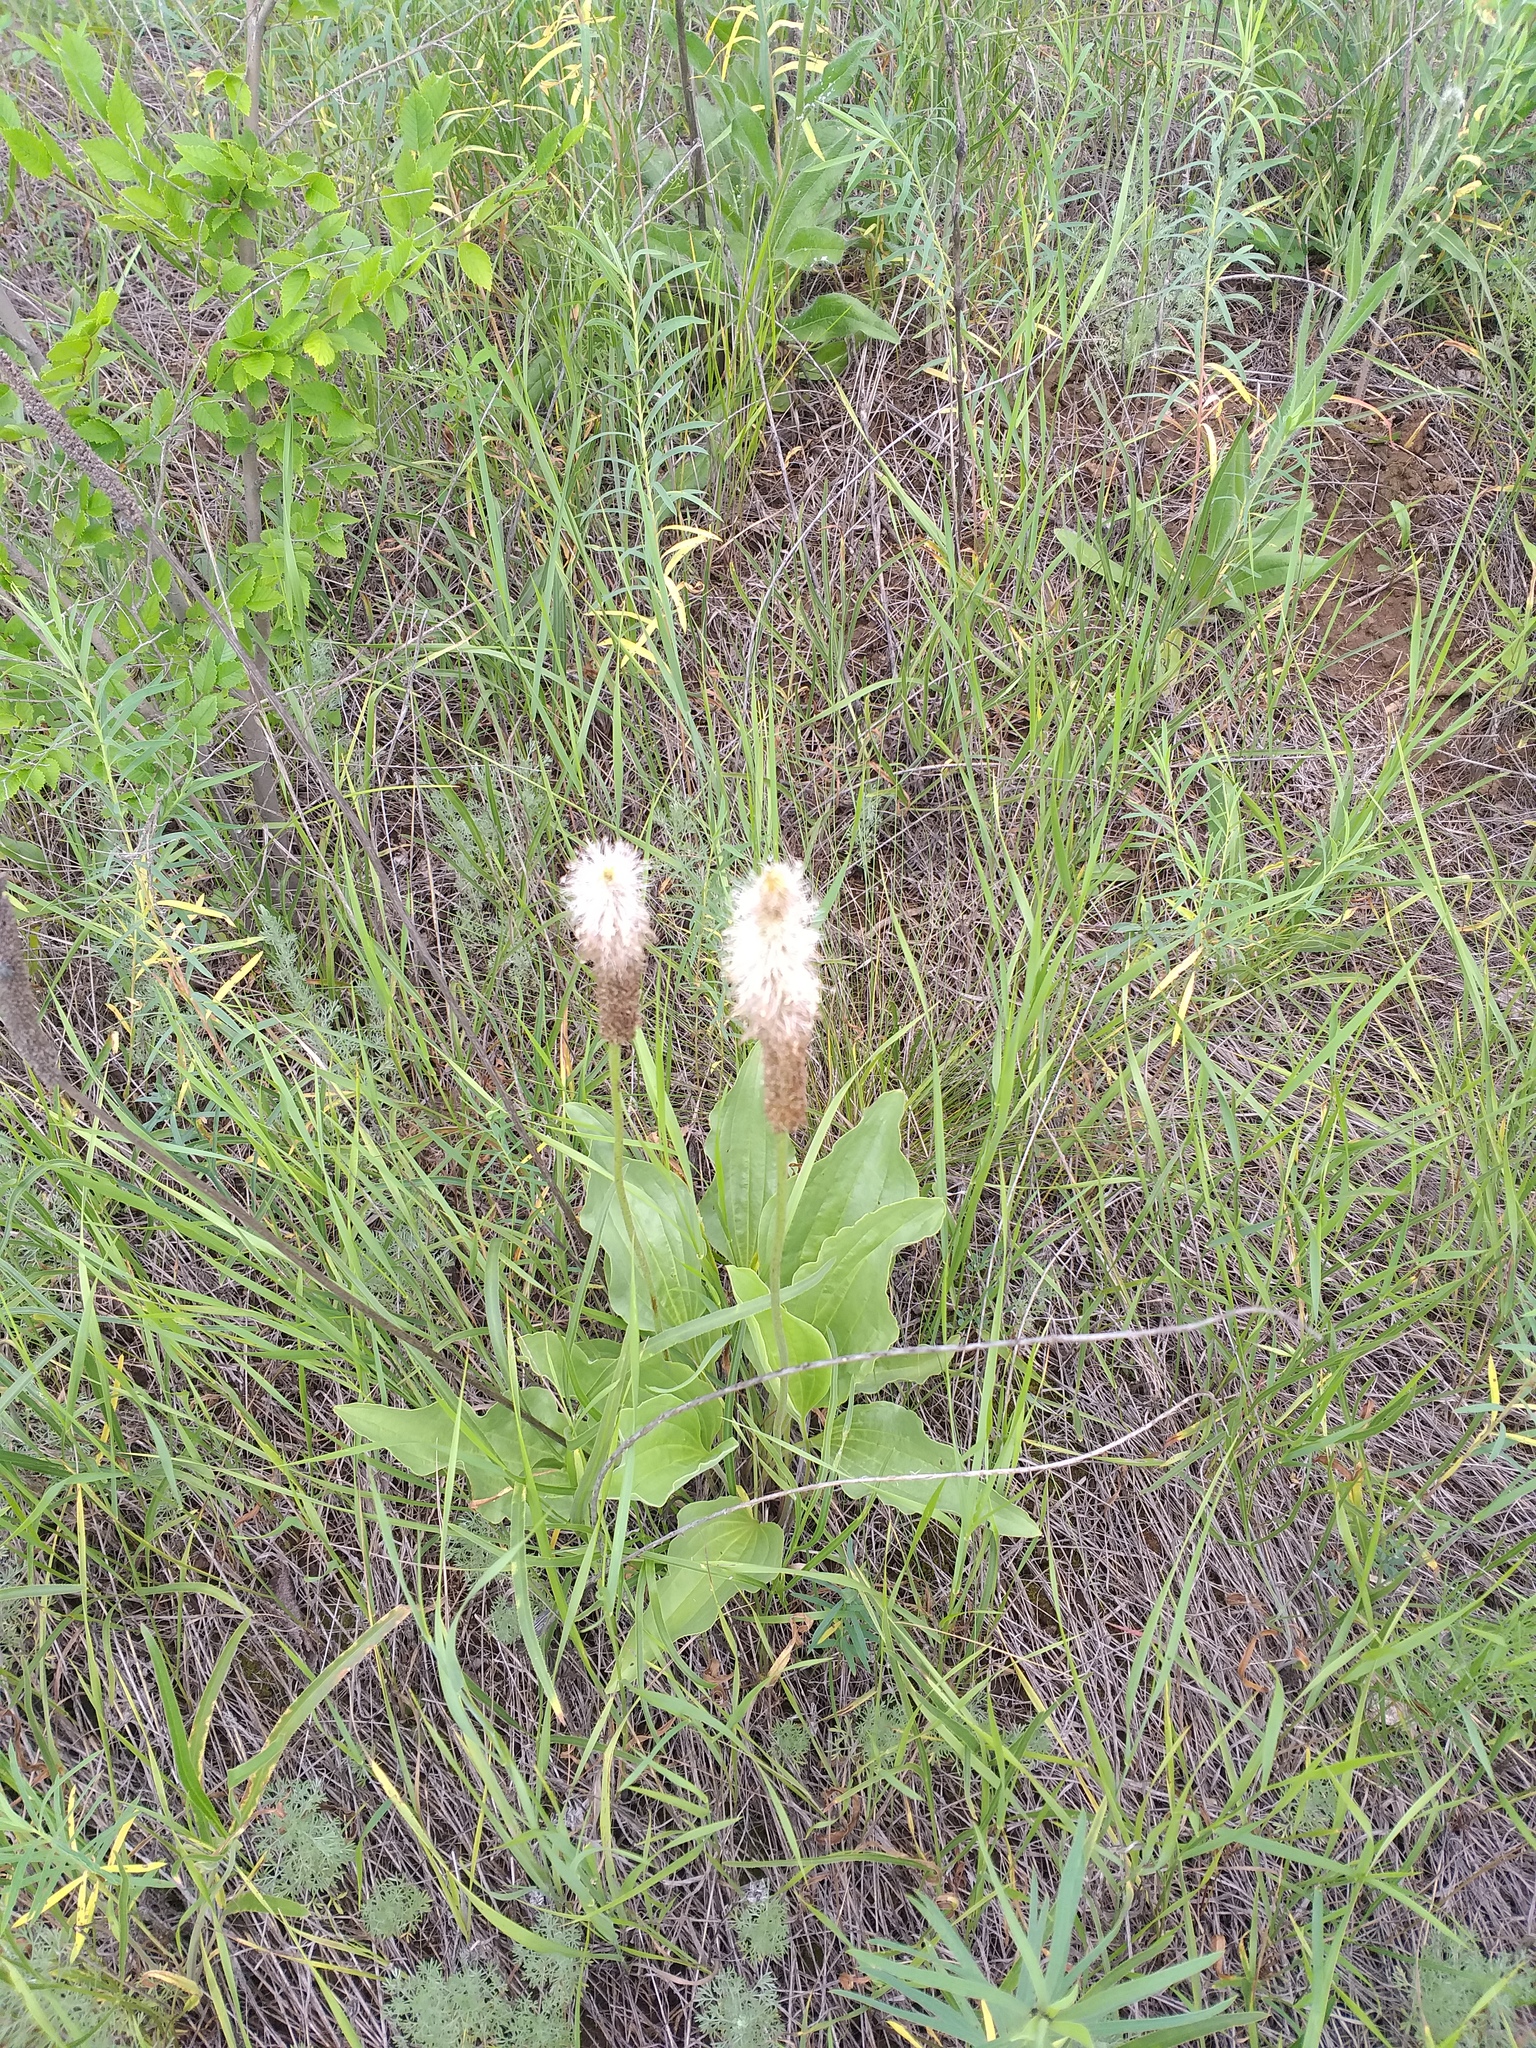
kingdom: Plantae
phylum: Tracheophyta
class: Magnoliopsida
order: Lamiales
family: Plantaginaceae
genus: Plantago
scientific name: Plantago maxima
